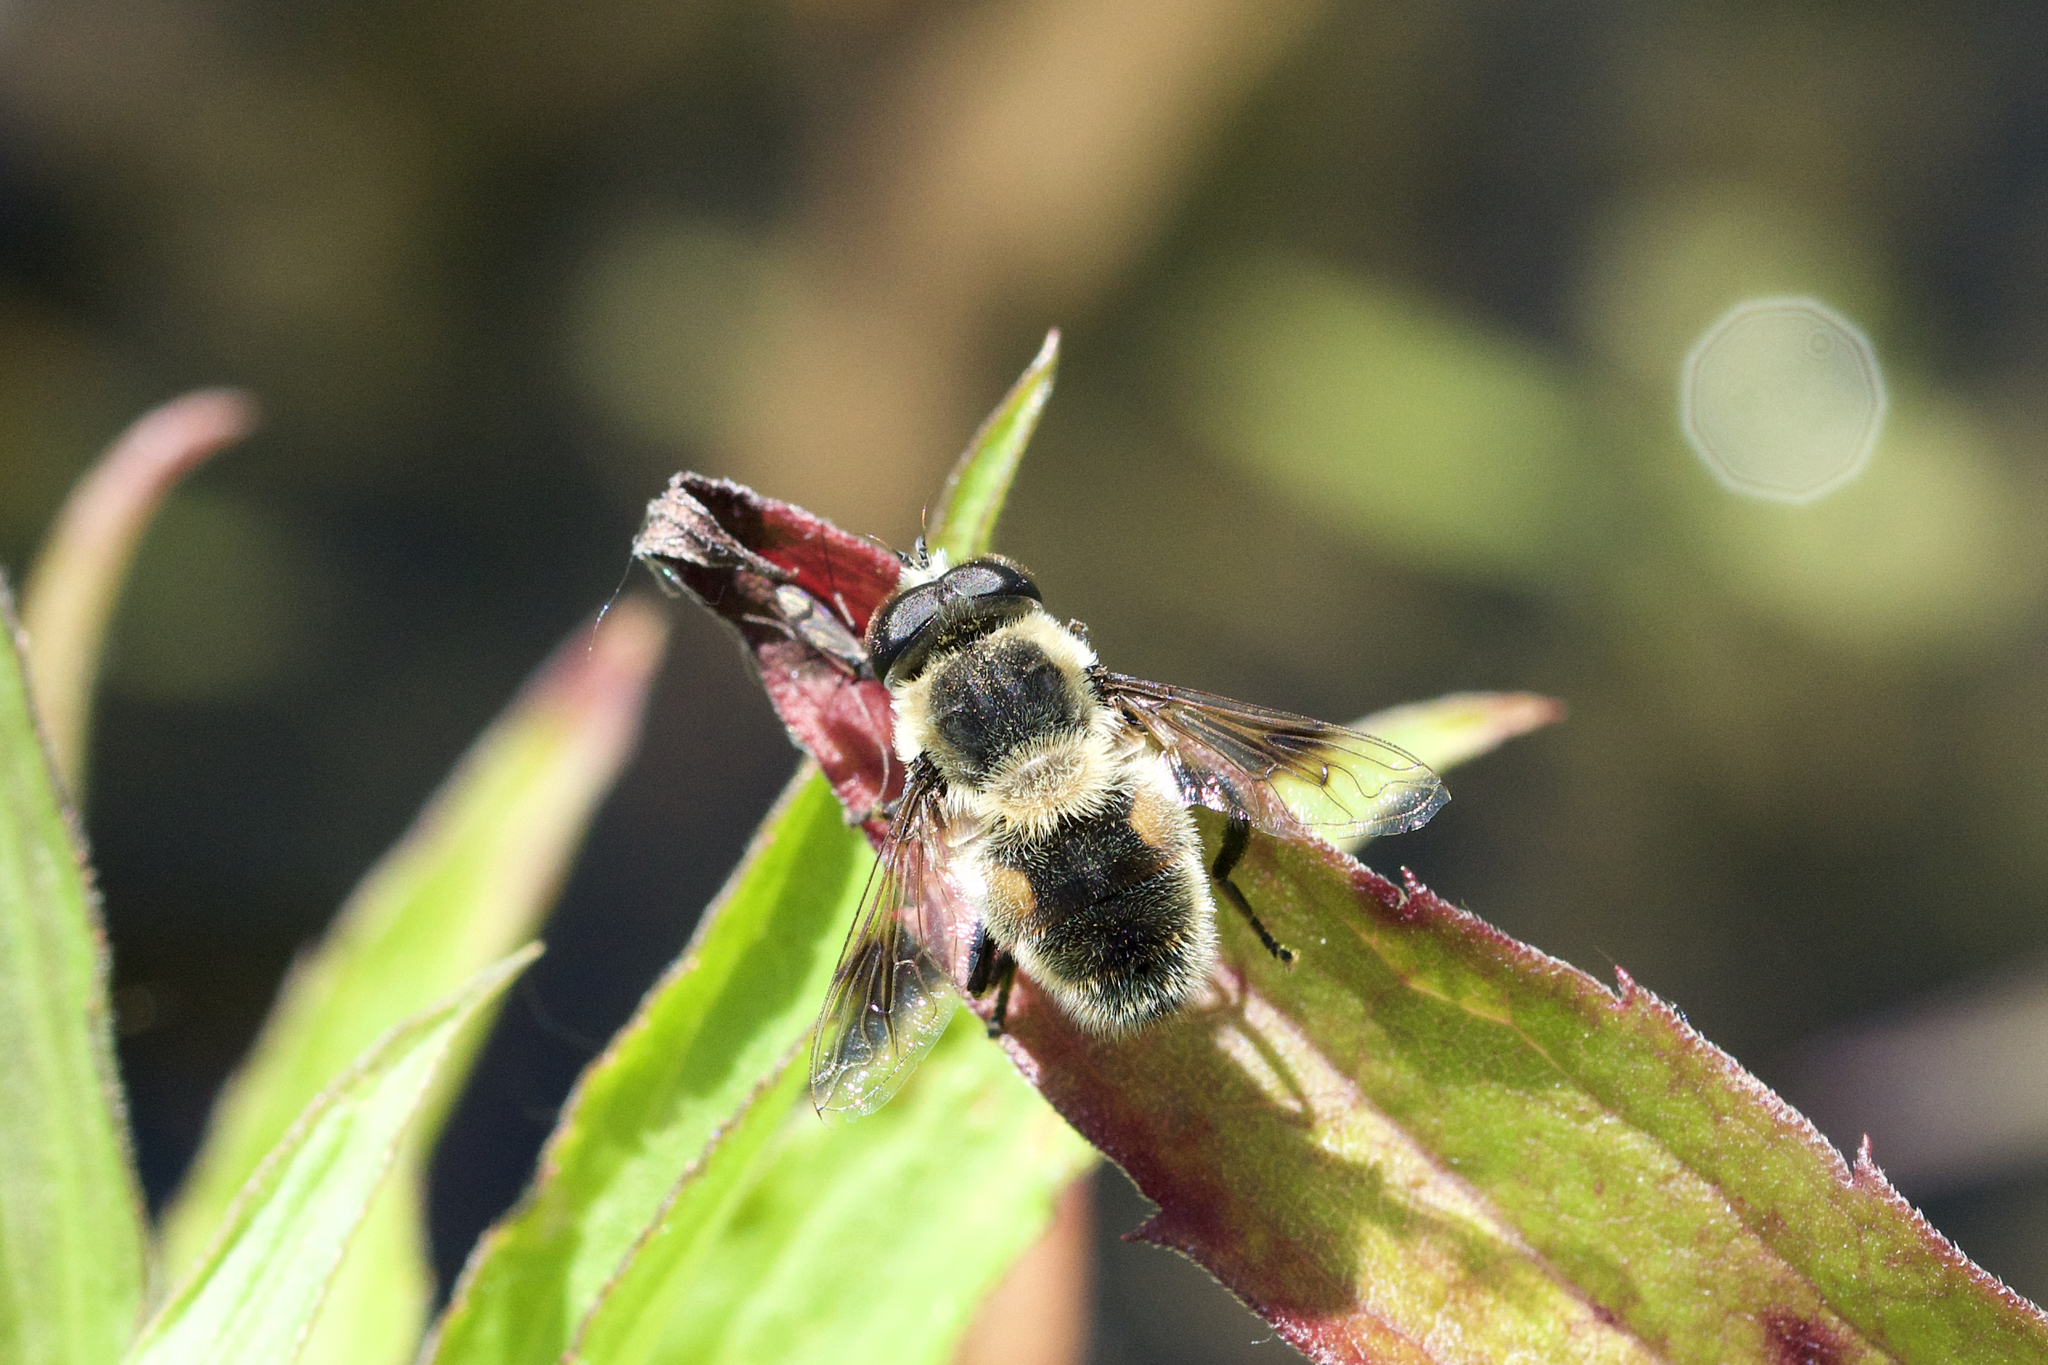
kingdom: Animalia
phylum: Arthropoda
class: Insecta
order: Diptera
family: Syrphidae
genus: Eristalis
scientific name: Eristalis anthophorina
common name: Orange-spotted drone fly
